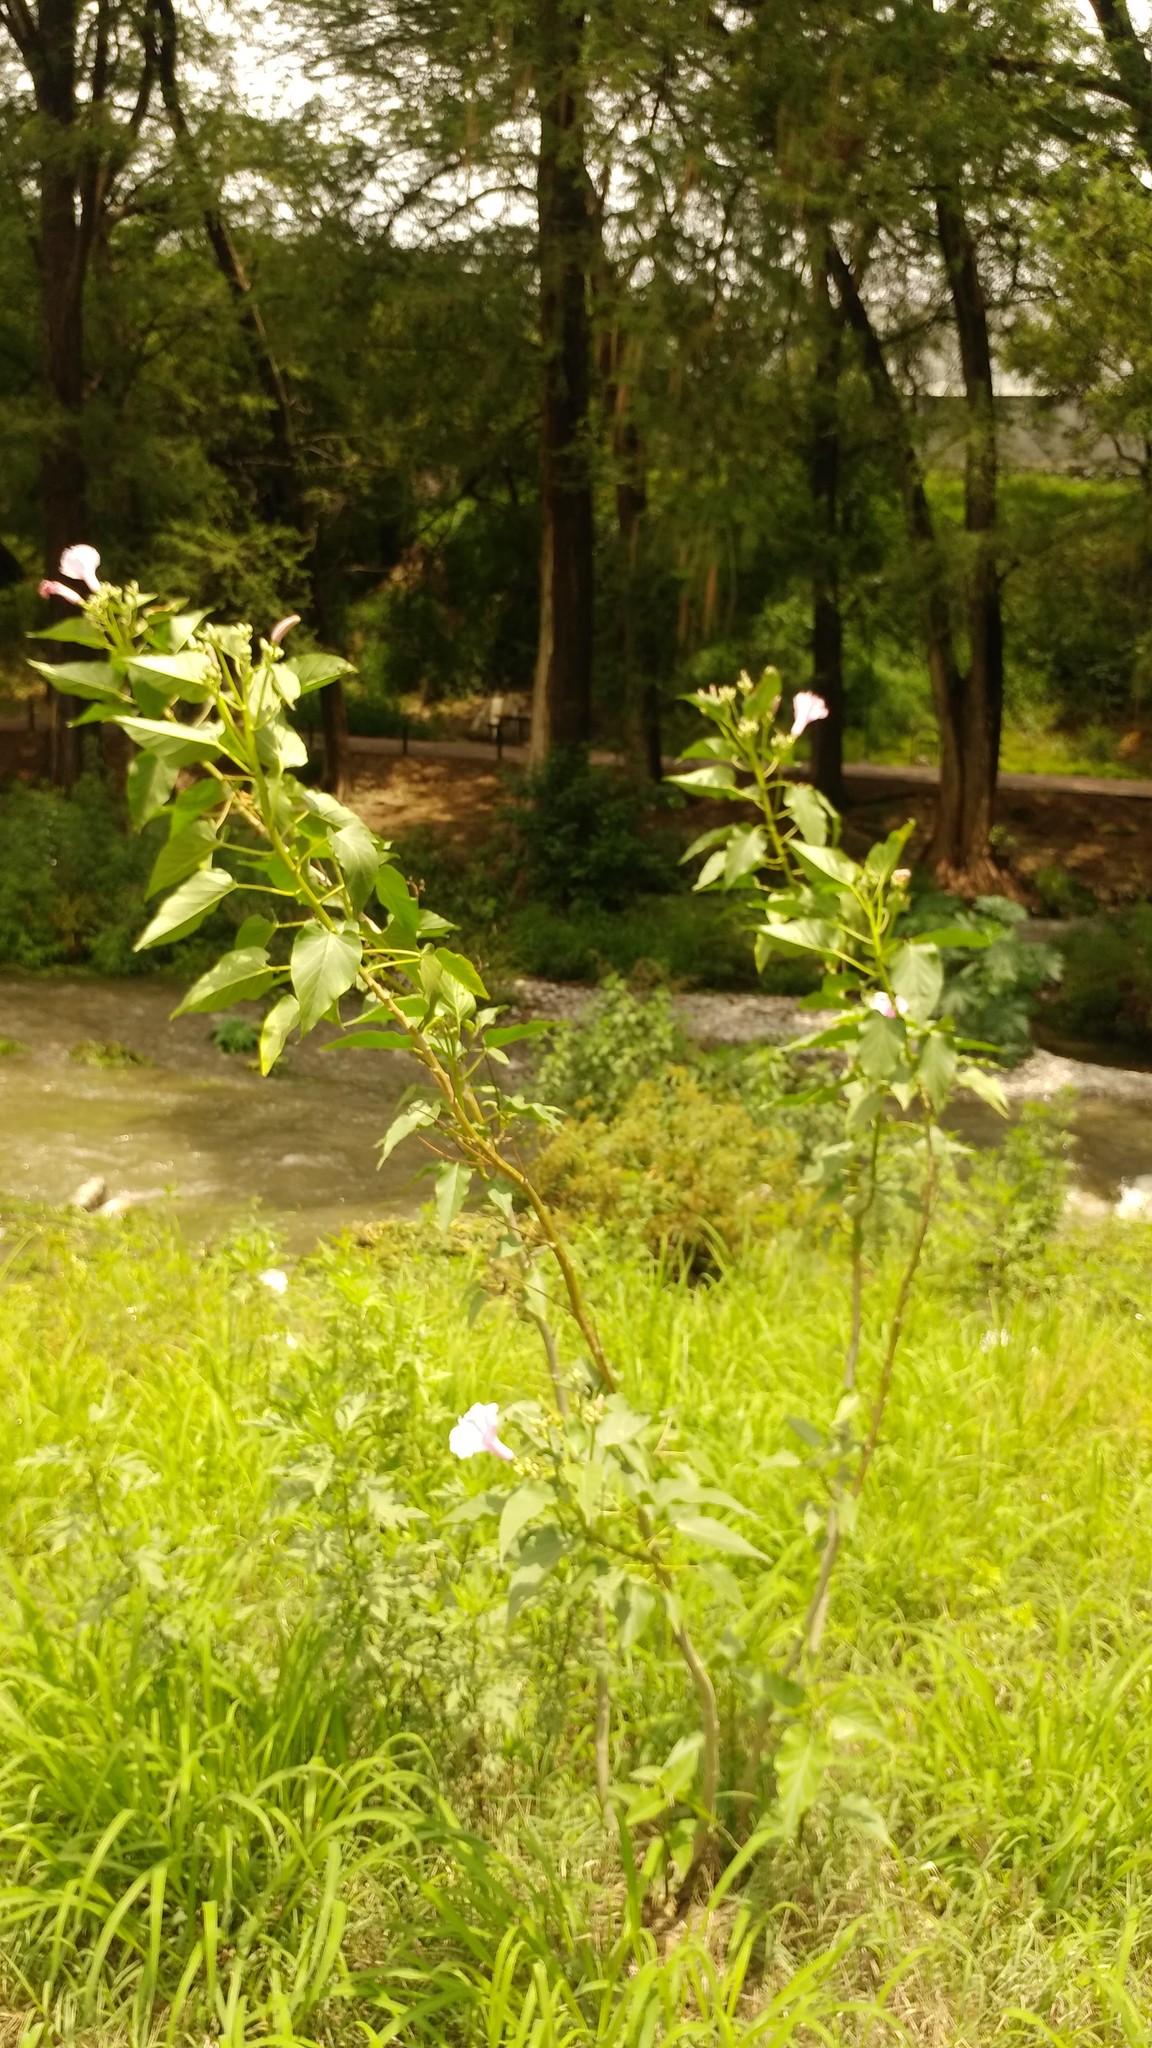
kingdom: Plantae
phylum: Tracheophyta
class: Magnoliopsida
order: Solanales
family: Convolvulaceae
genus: Ipomoea
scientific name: Ipomoea carnea
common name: Morning-glory
